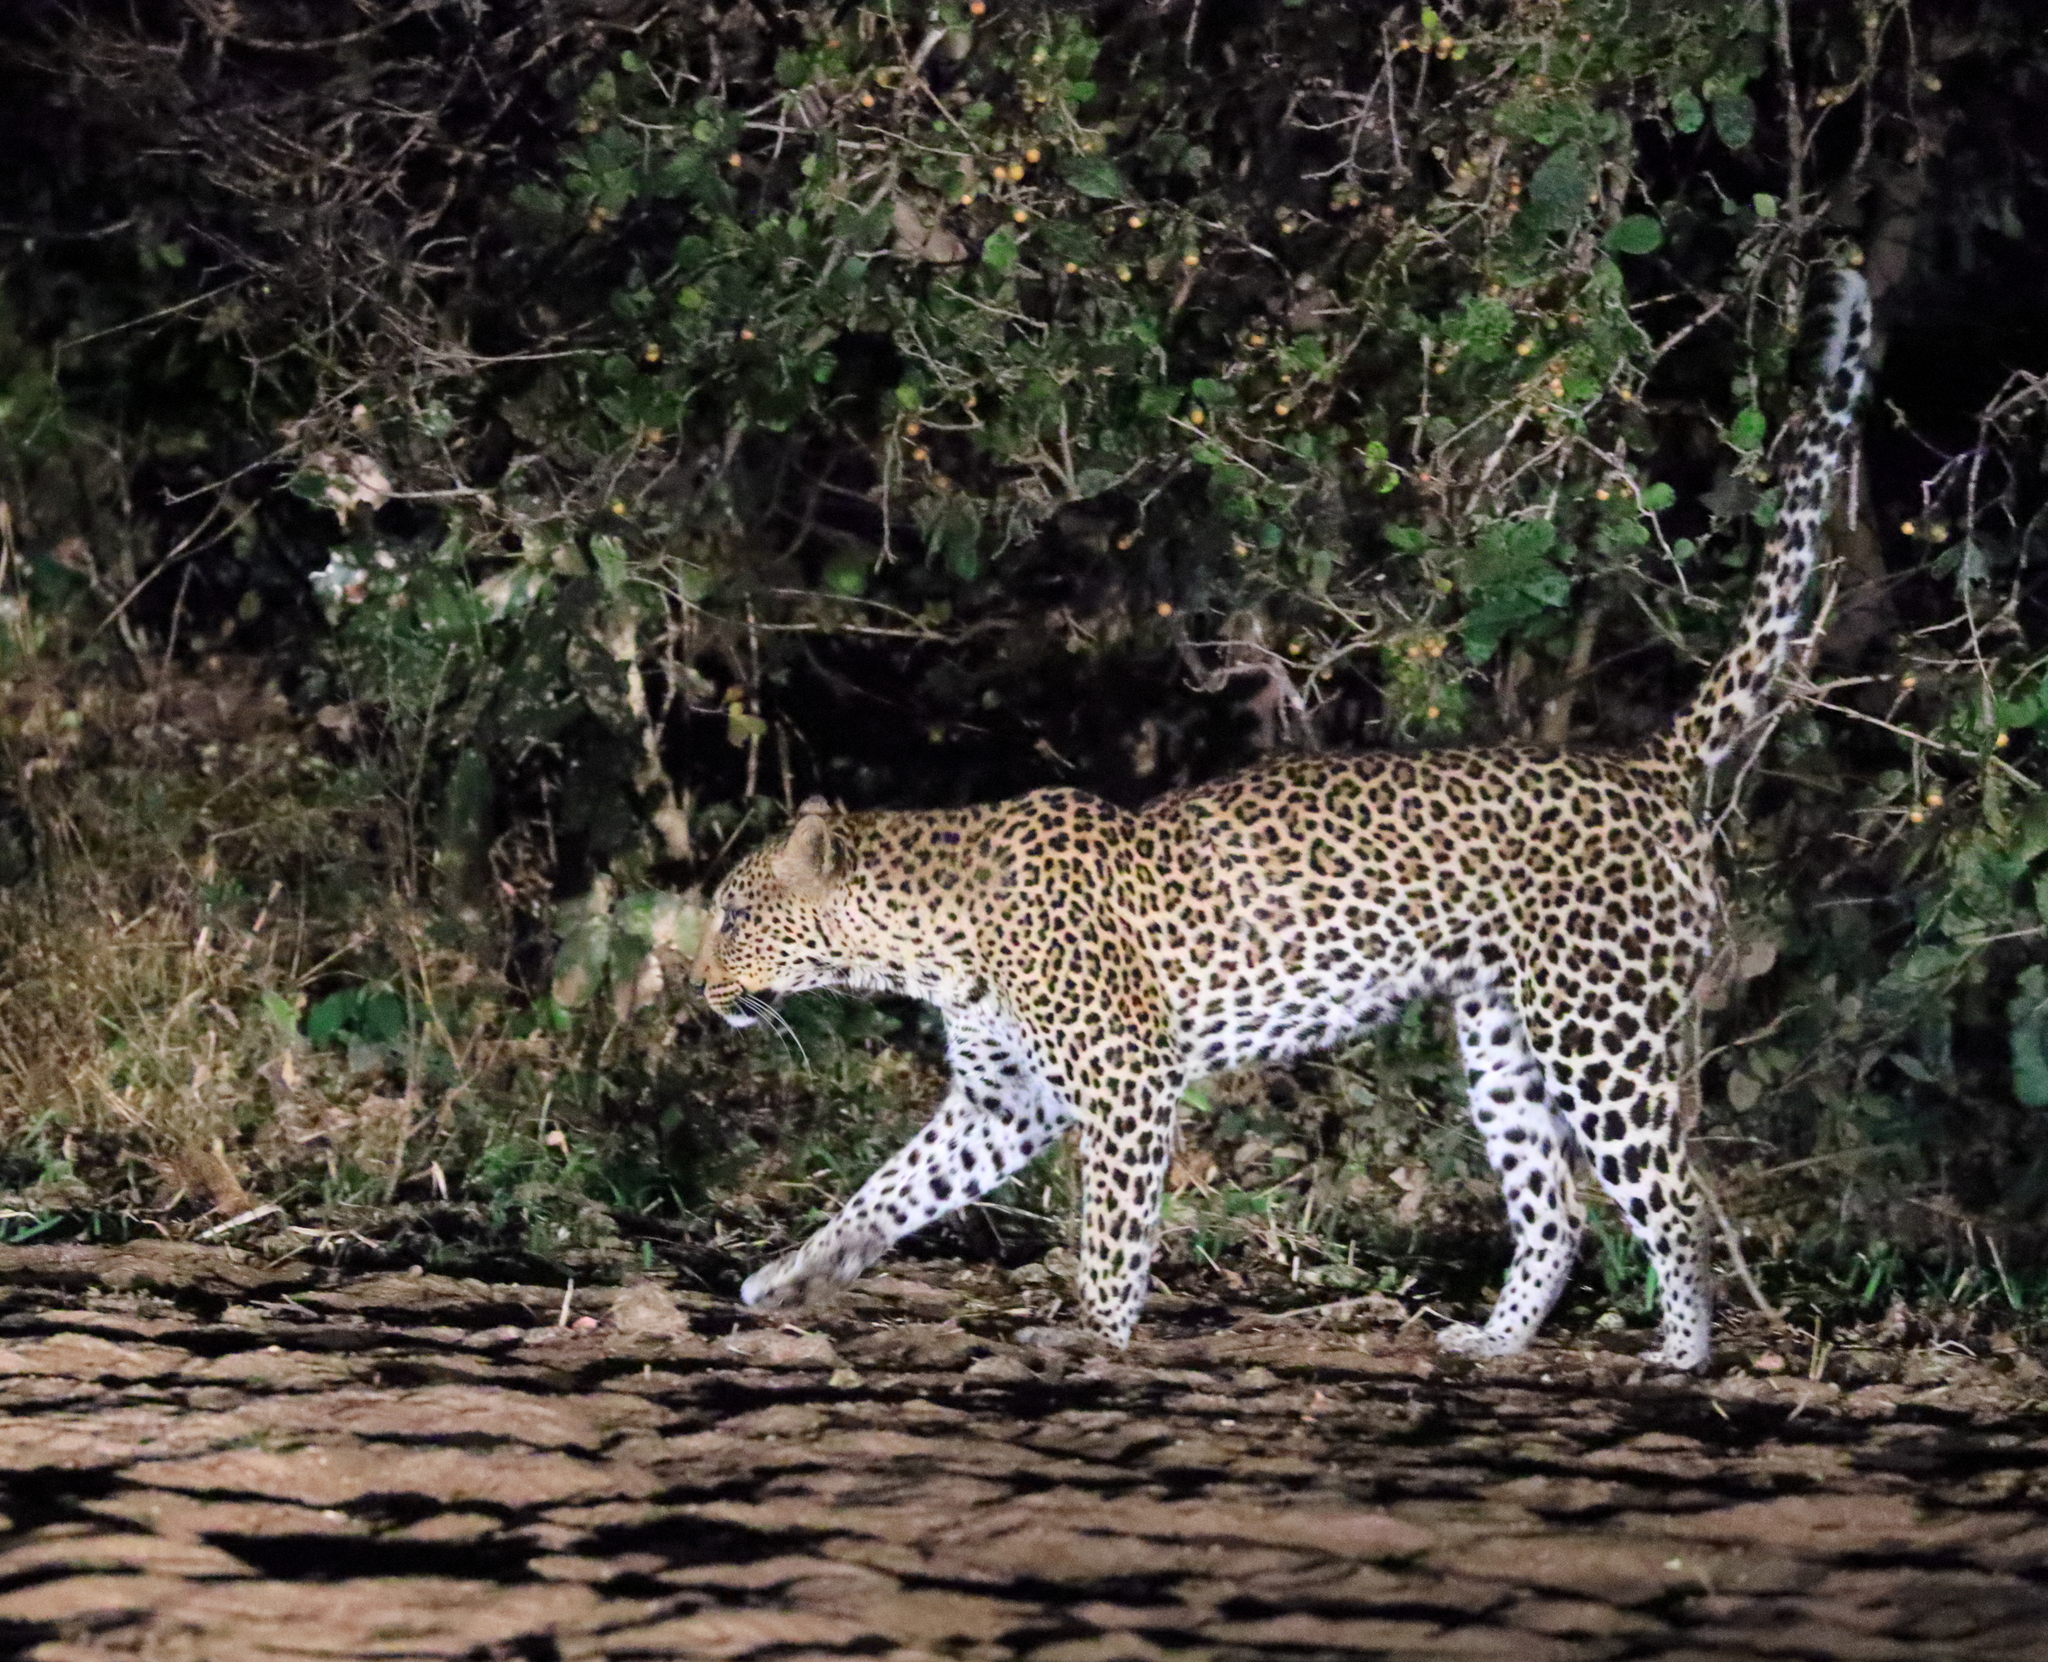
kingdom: Animalia
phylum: Chordata
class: Mammalia
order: Carnivora
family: Felidae
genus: Panthera
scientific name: Panthera pardus
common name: Leopard
